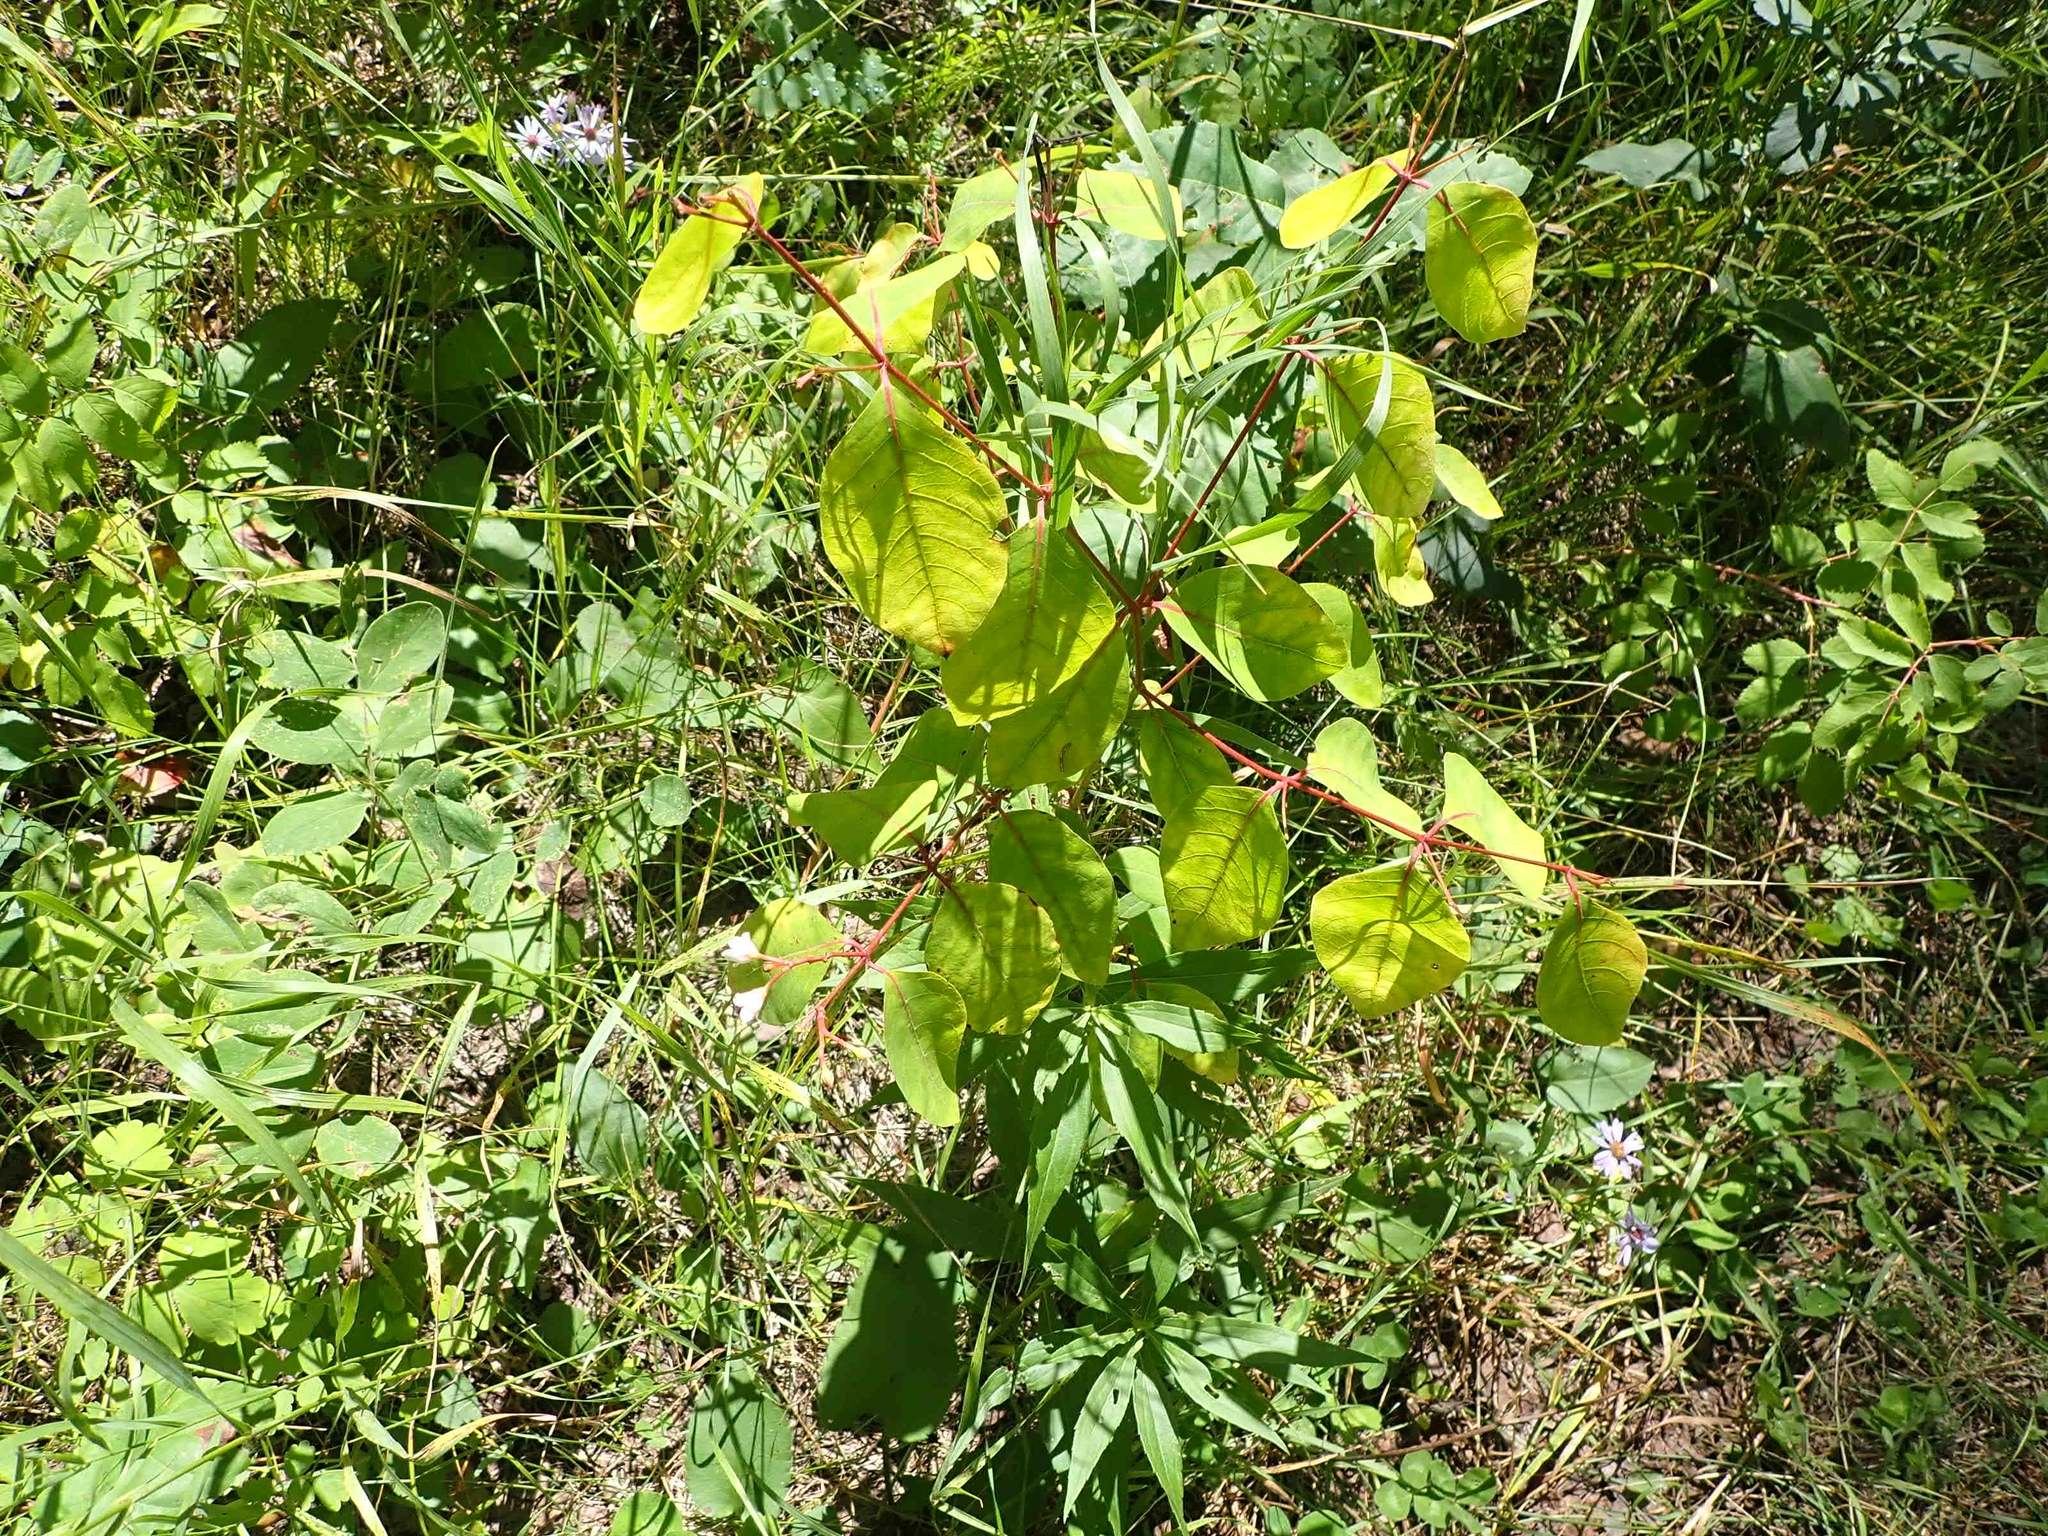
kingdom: Plantae
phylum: Tracheophyta
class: Magnoliopsida
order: Gentianales
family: Apocynaceae
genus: Apocynum
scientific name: Apocynum androsaemifolium
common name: Spreading dogbane
